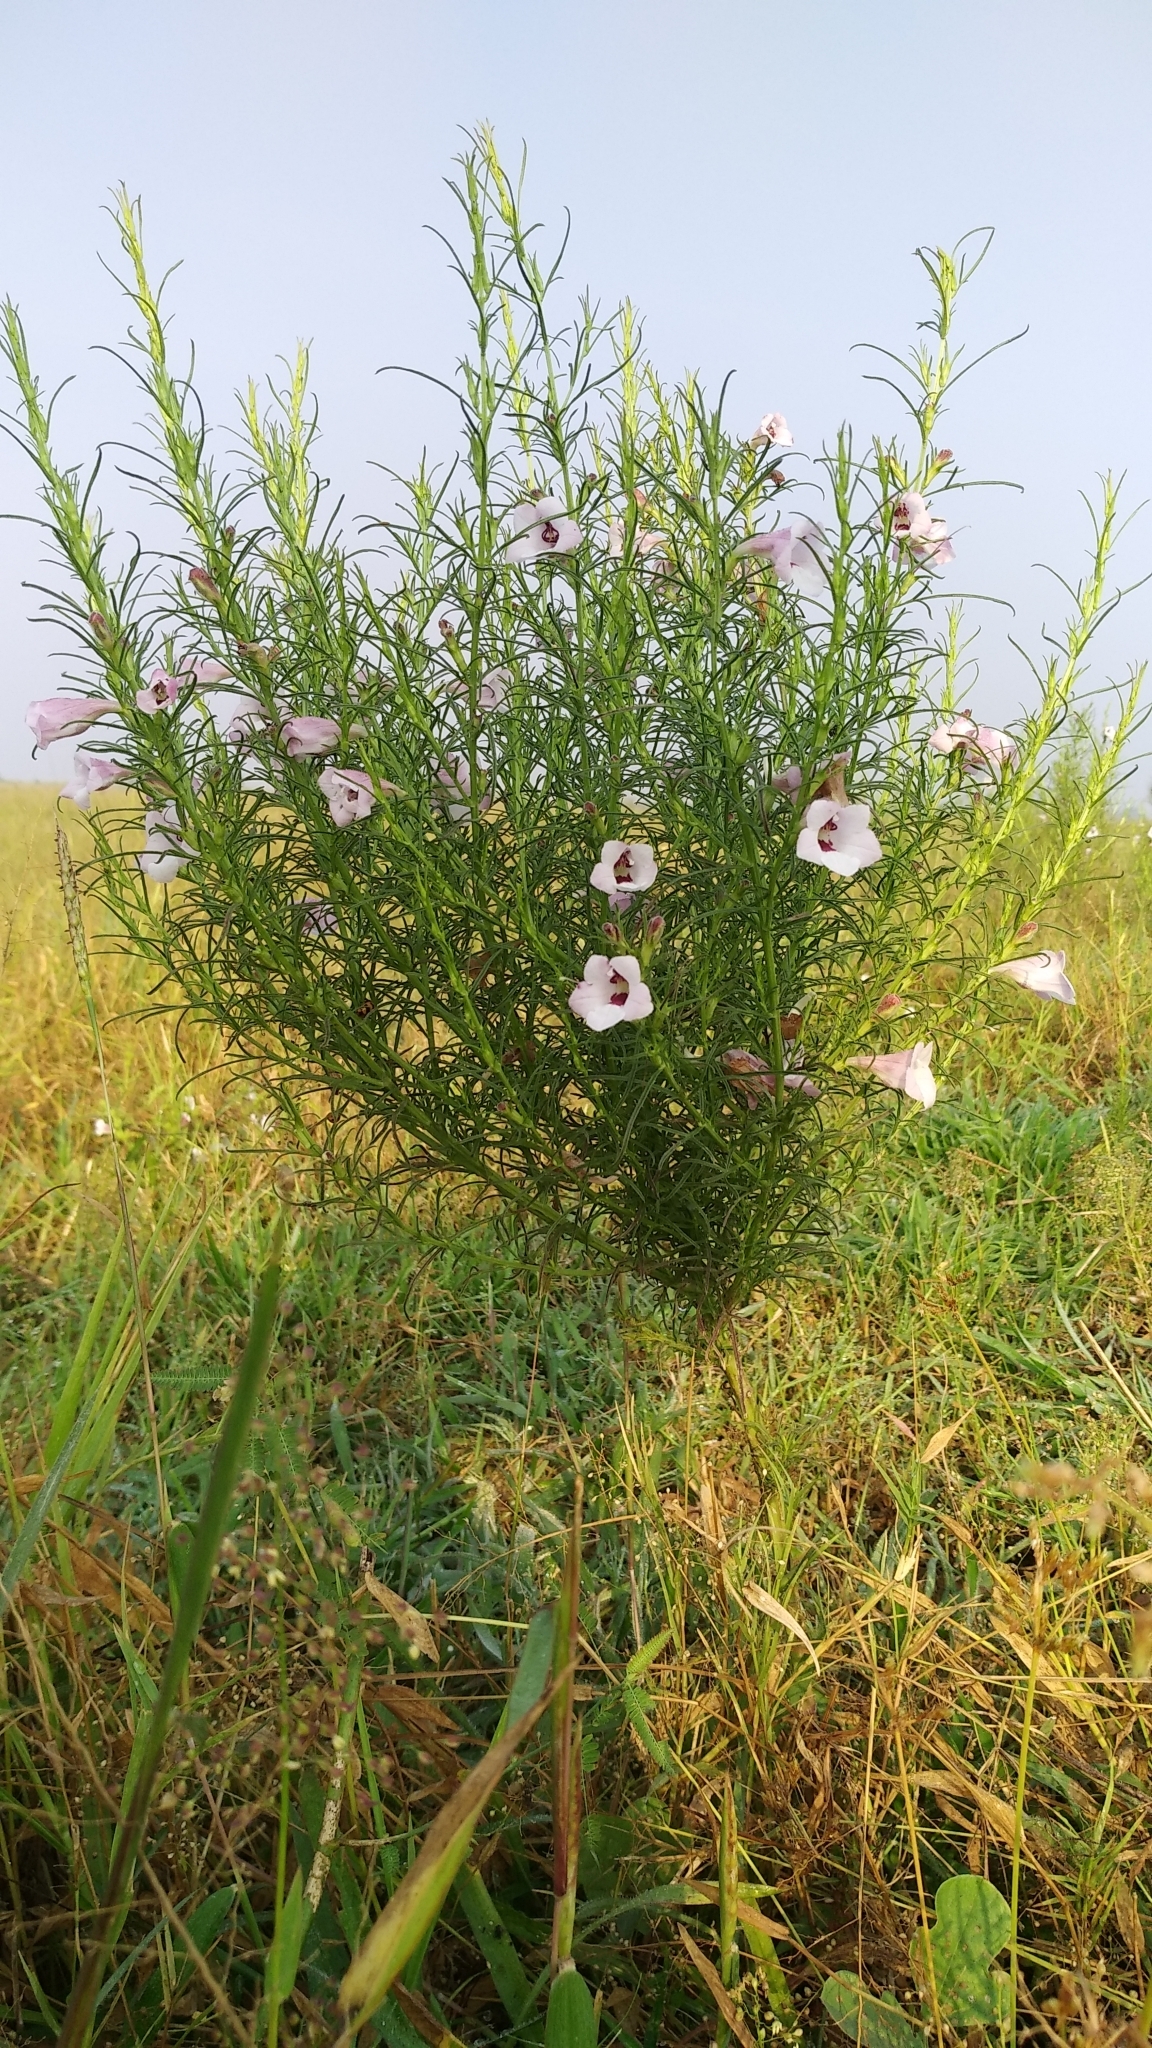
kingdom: Plantae
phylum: Tracheophyta
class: Magnoliopsida
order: Lamiales
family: Orobanchaceae
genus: Parasopubia
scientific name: Parasopubia delphiniifolia
